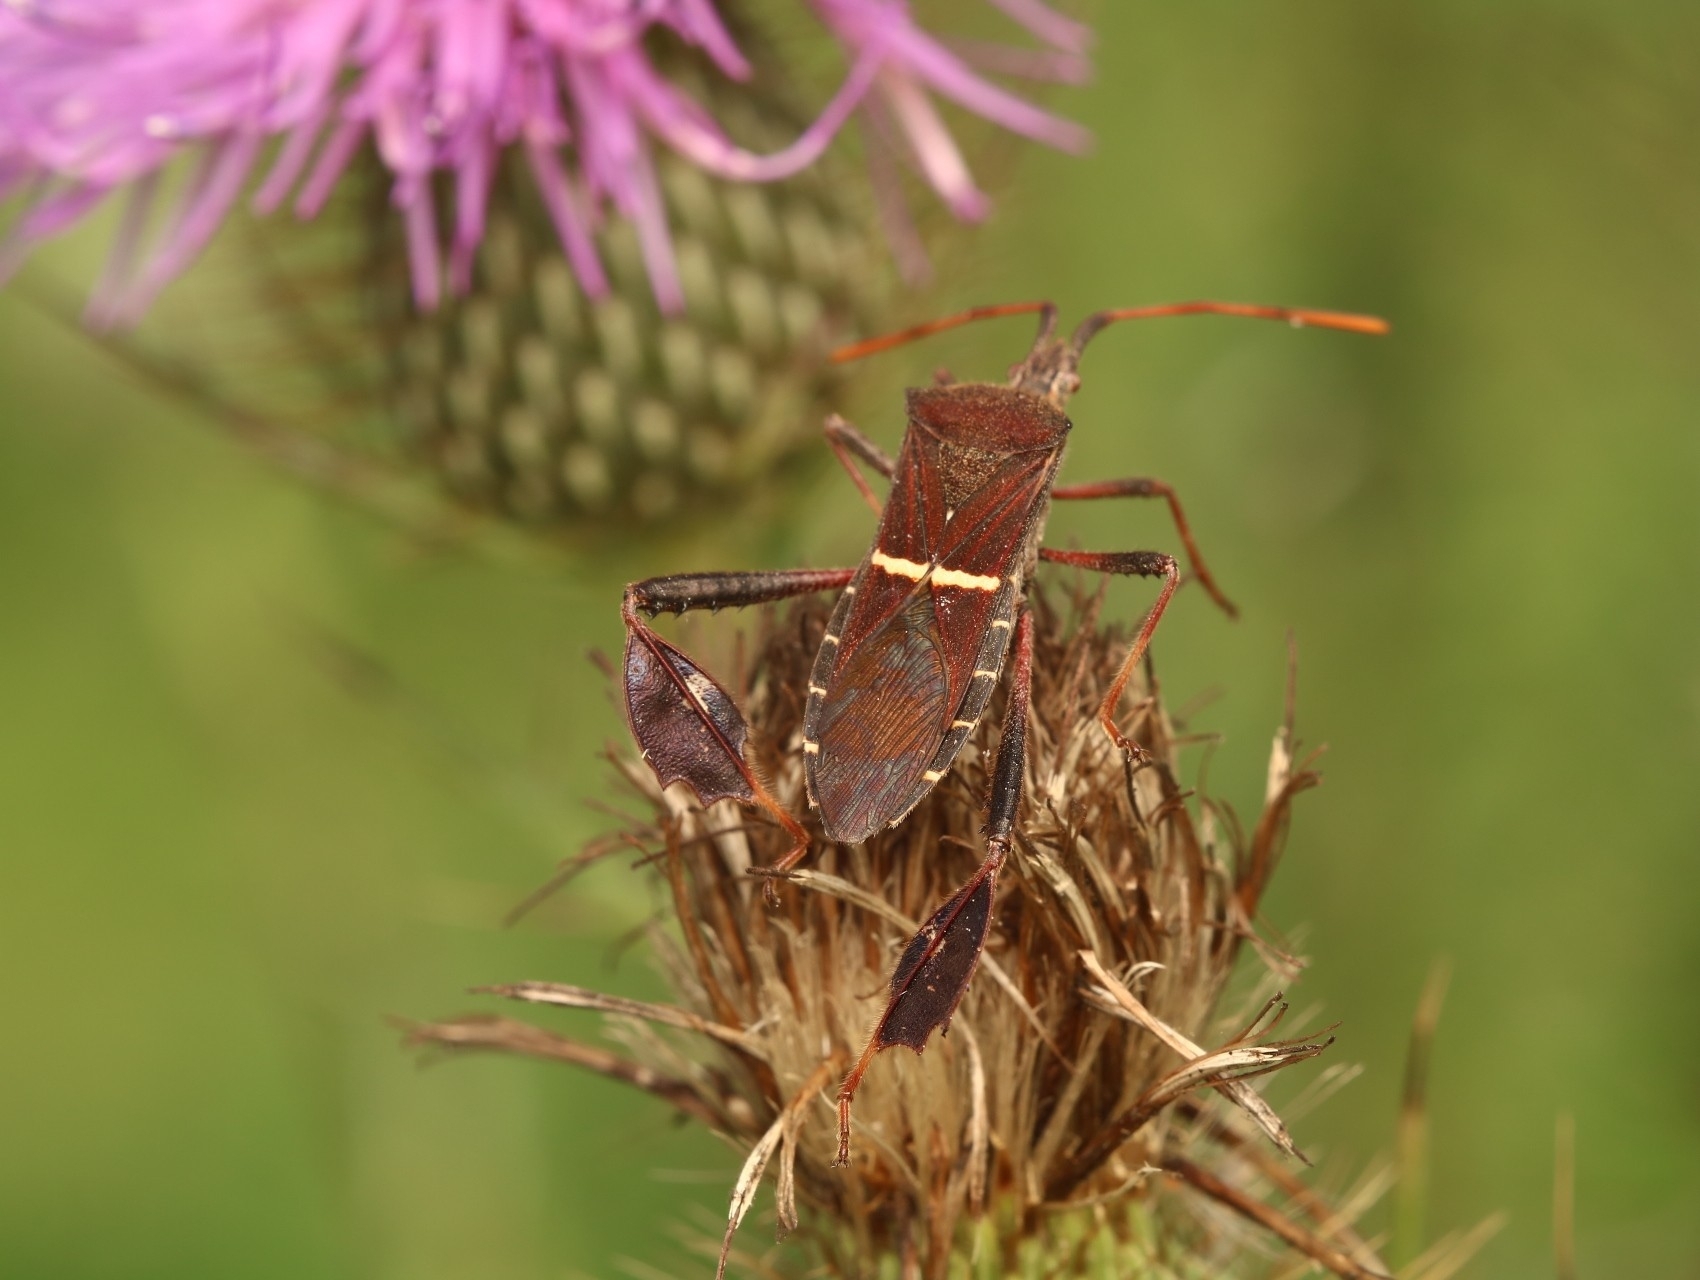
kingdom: Animalia
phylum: Arthropoda
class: Insecta
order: Hemiptera
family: Coreidae
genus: Leptoglossus
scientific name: Leptoglossus phyllopus
